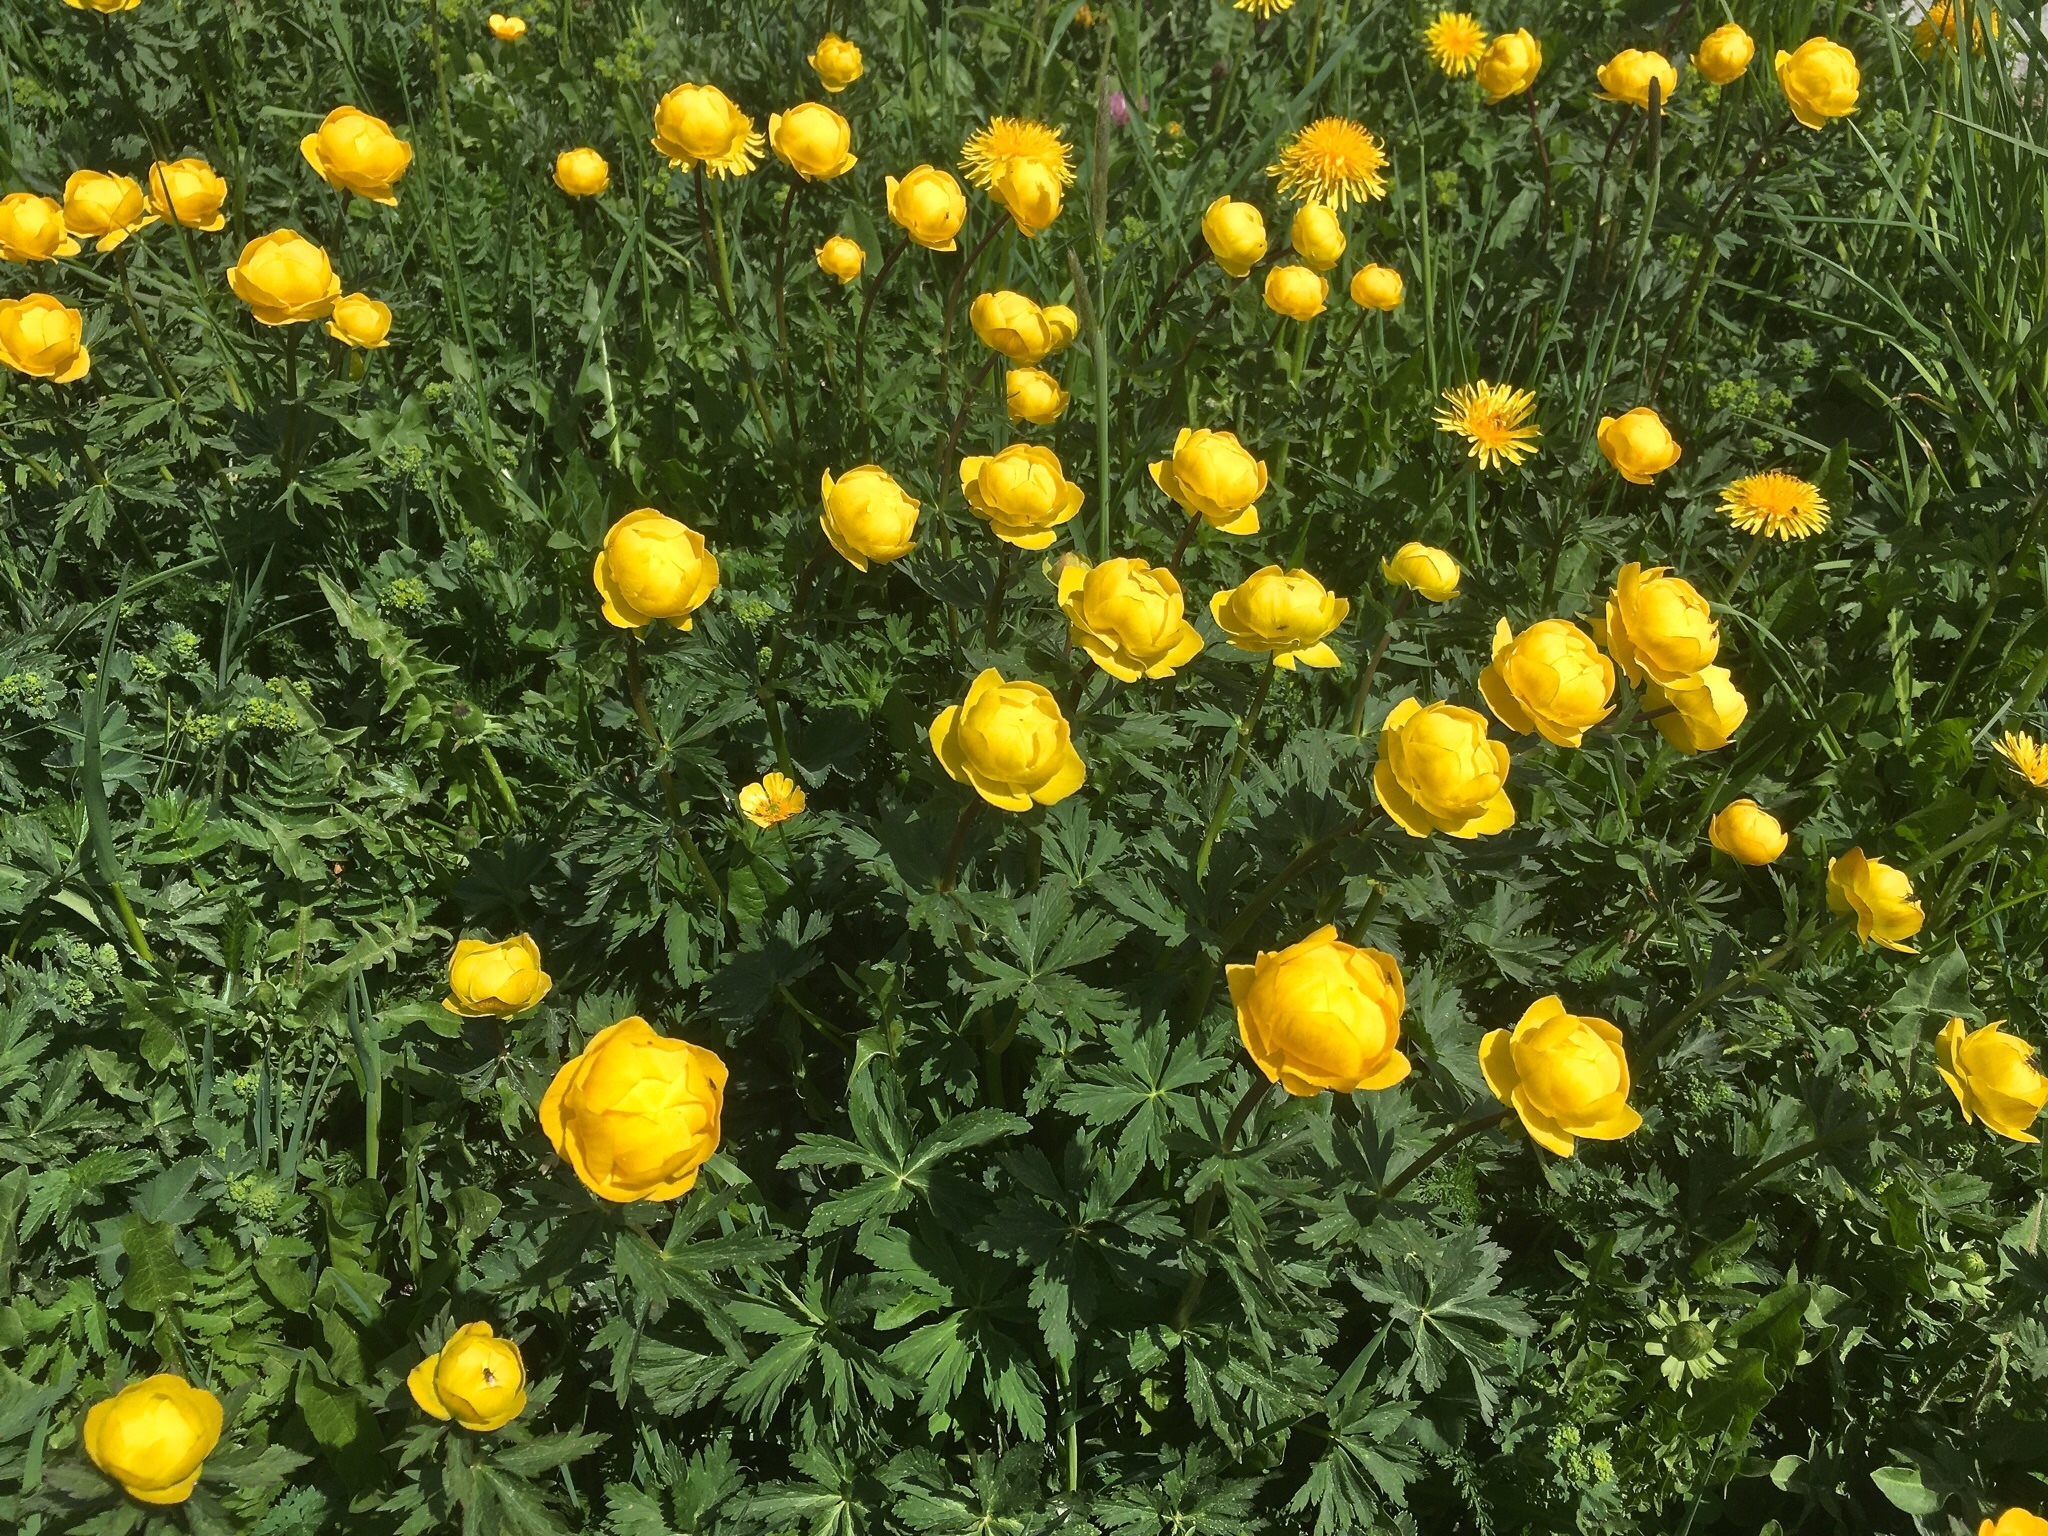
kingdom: Plantae
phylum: Tracheophyta
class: Magnoliopsida
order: Ranunculales
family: Ranunculaceae
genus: Trollius
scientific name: Trollius europaeus
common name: European globeflower
